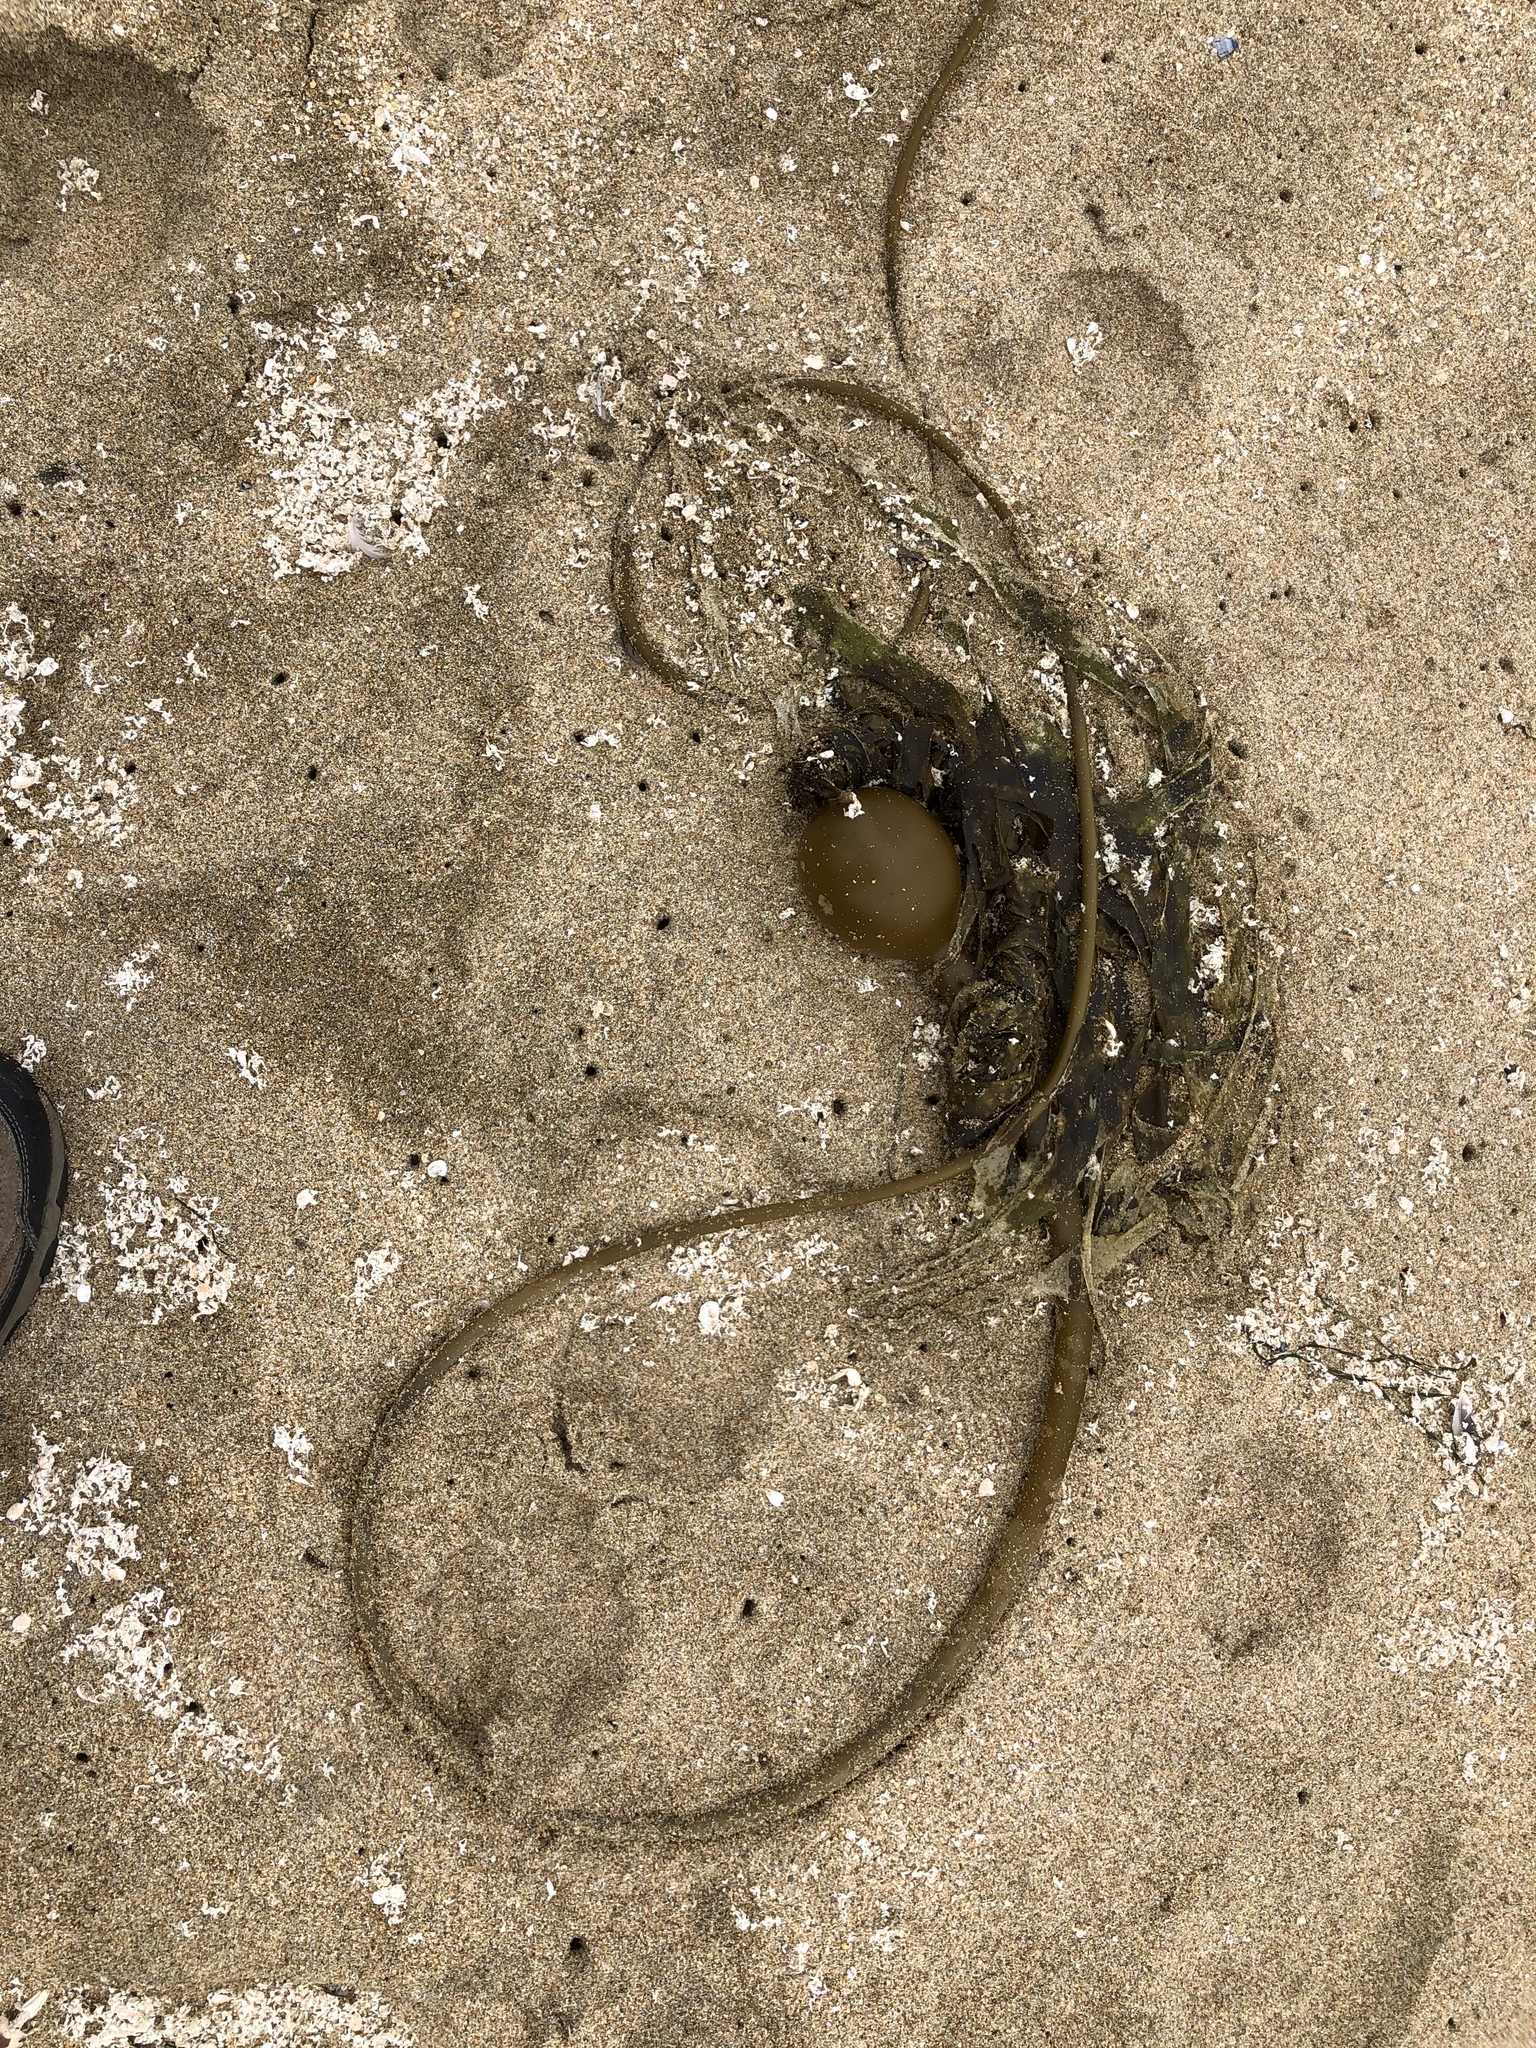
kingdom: Chromista
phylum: Ochrophyta
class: Phaeophyceae
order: Laminariales
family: Laminariaceae
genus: Nereocystis
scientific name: Nereocystis luetkeana
